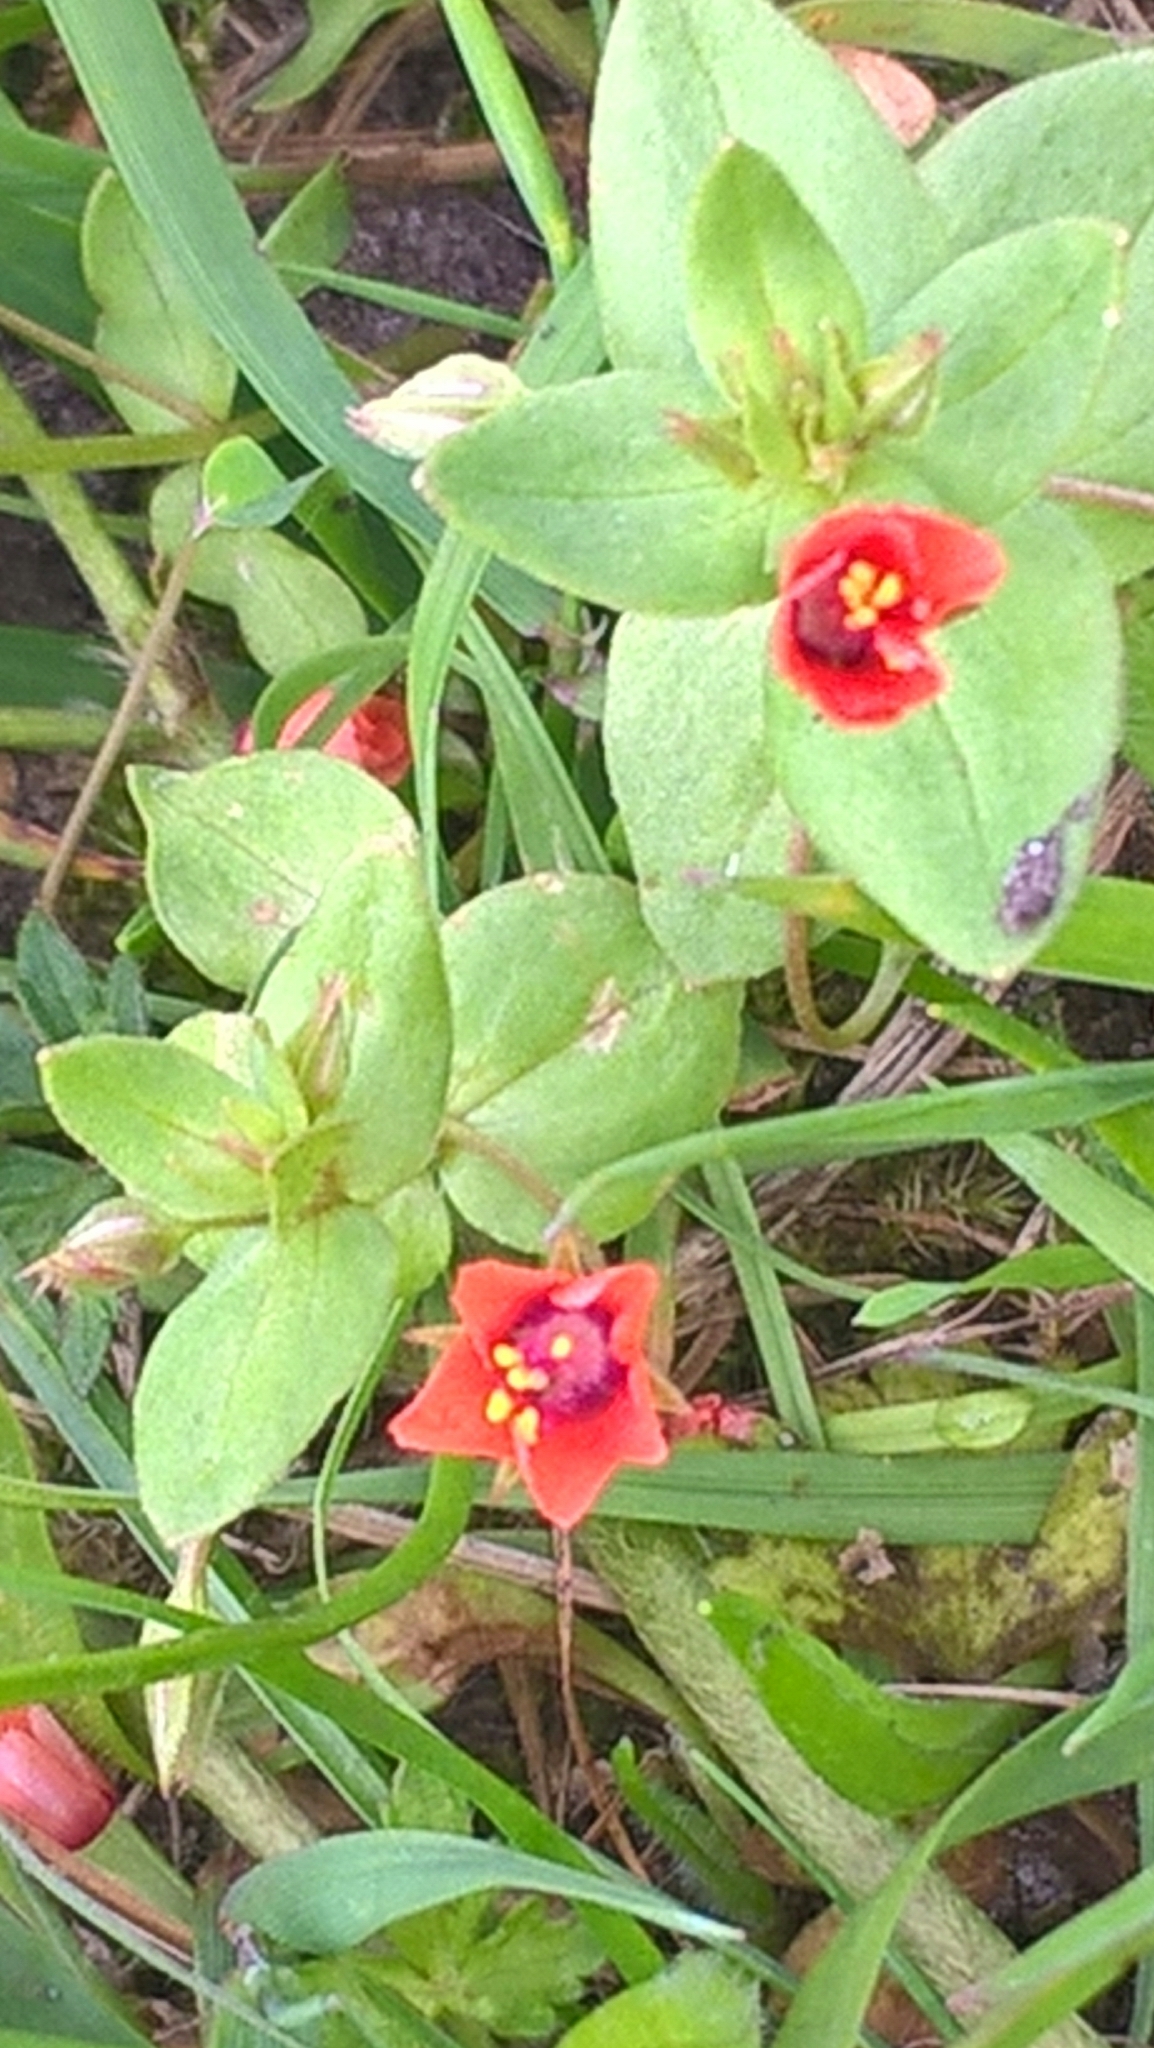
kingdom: Plantae
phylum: Tracheophyta
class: Magnoliopsida
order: Ericales
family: Primulaceae
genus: Lysimachia
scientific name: Lysimachia arvensis
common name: Scarlet pimpernel
